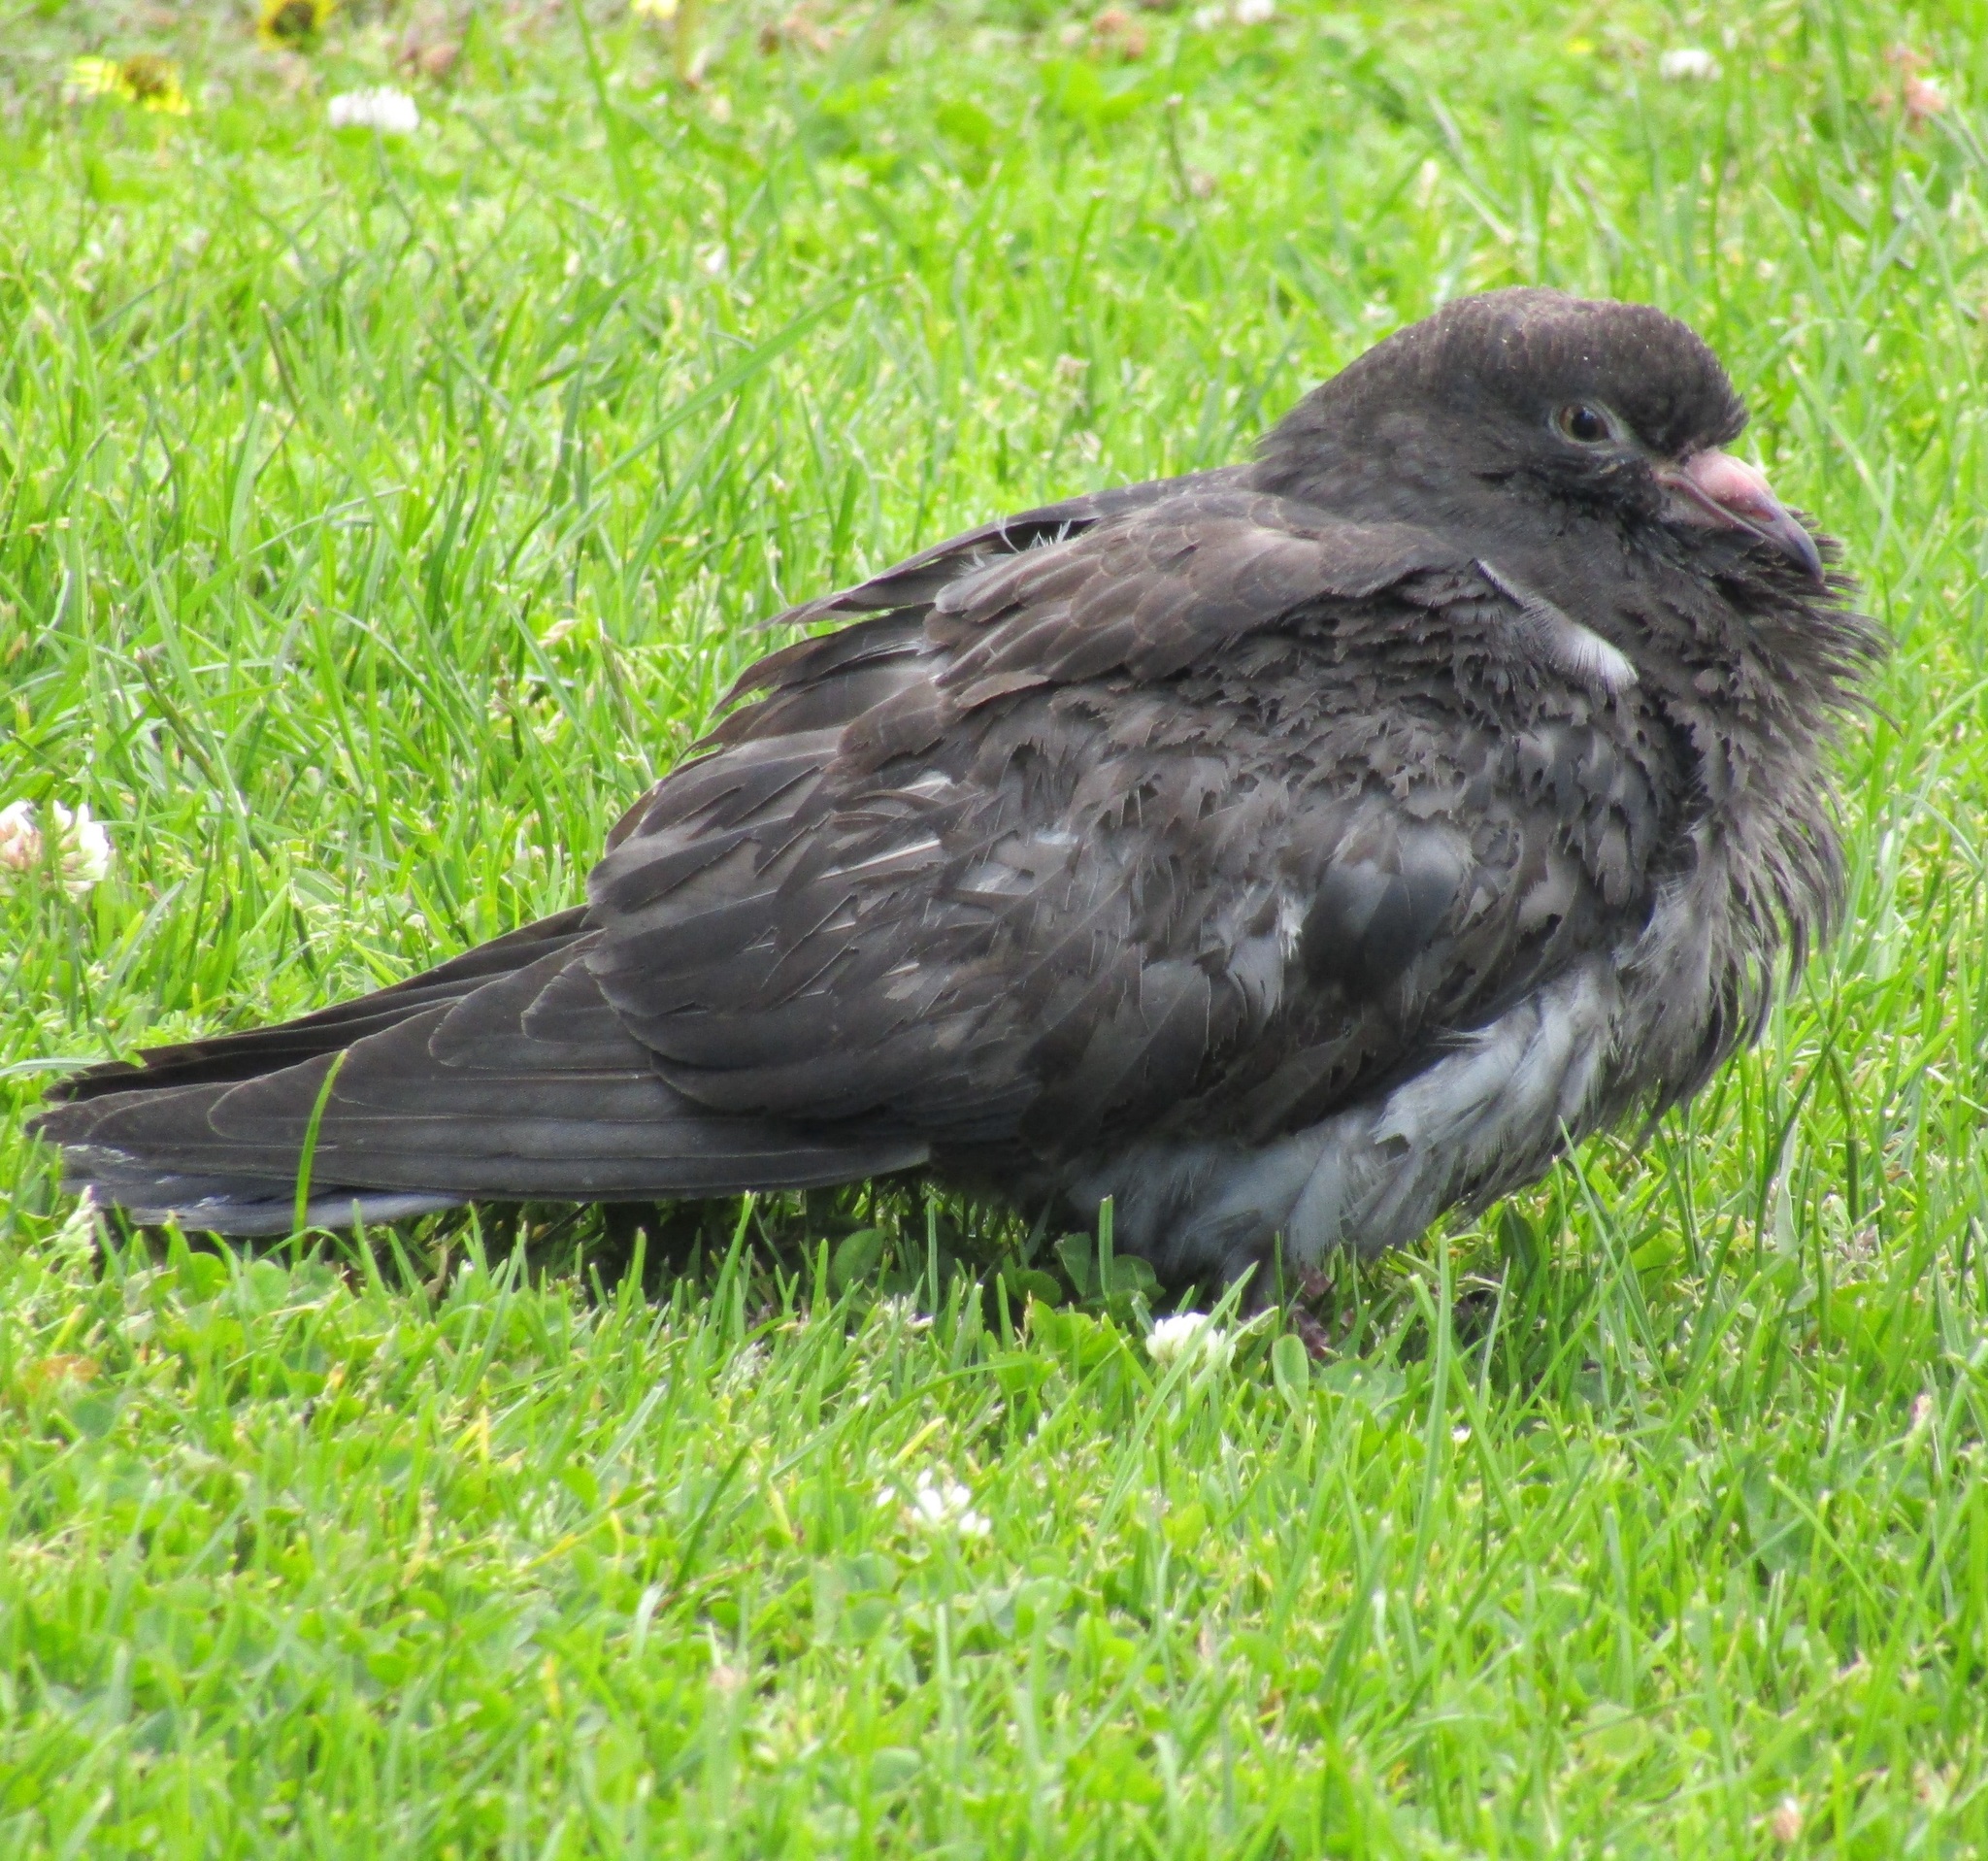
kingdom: Animalia
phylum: Chordata
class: Aves
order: Columbiformes
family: Columbidae
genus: Columba
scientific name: Columba livia
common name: Rock pigeon
